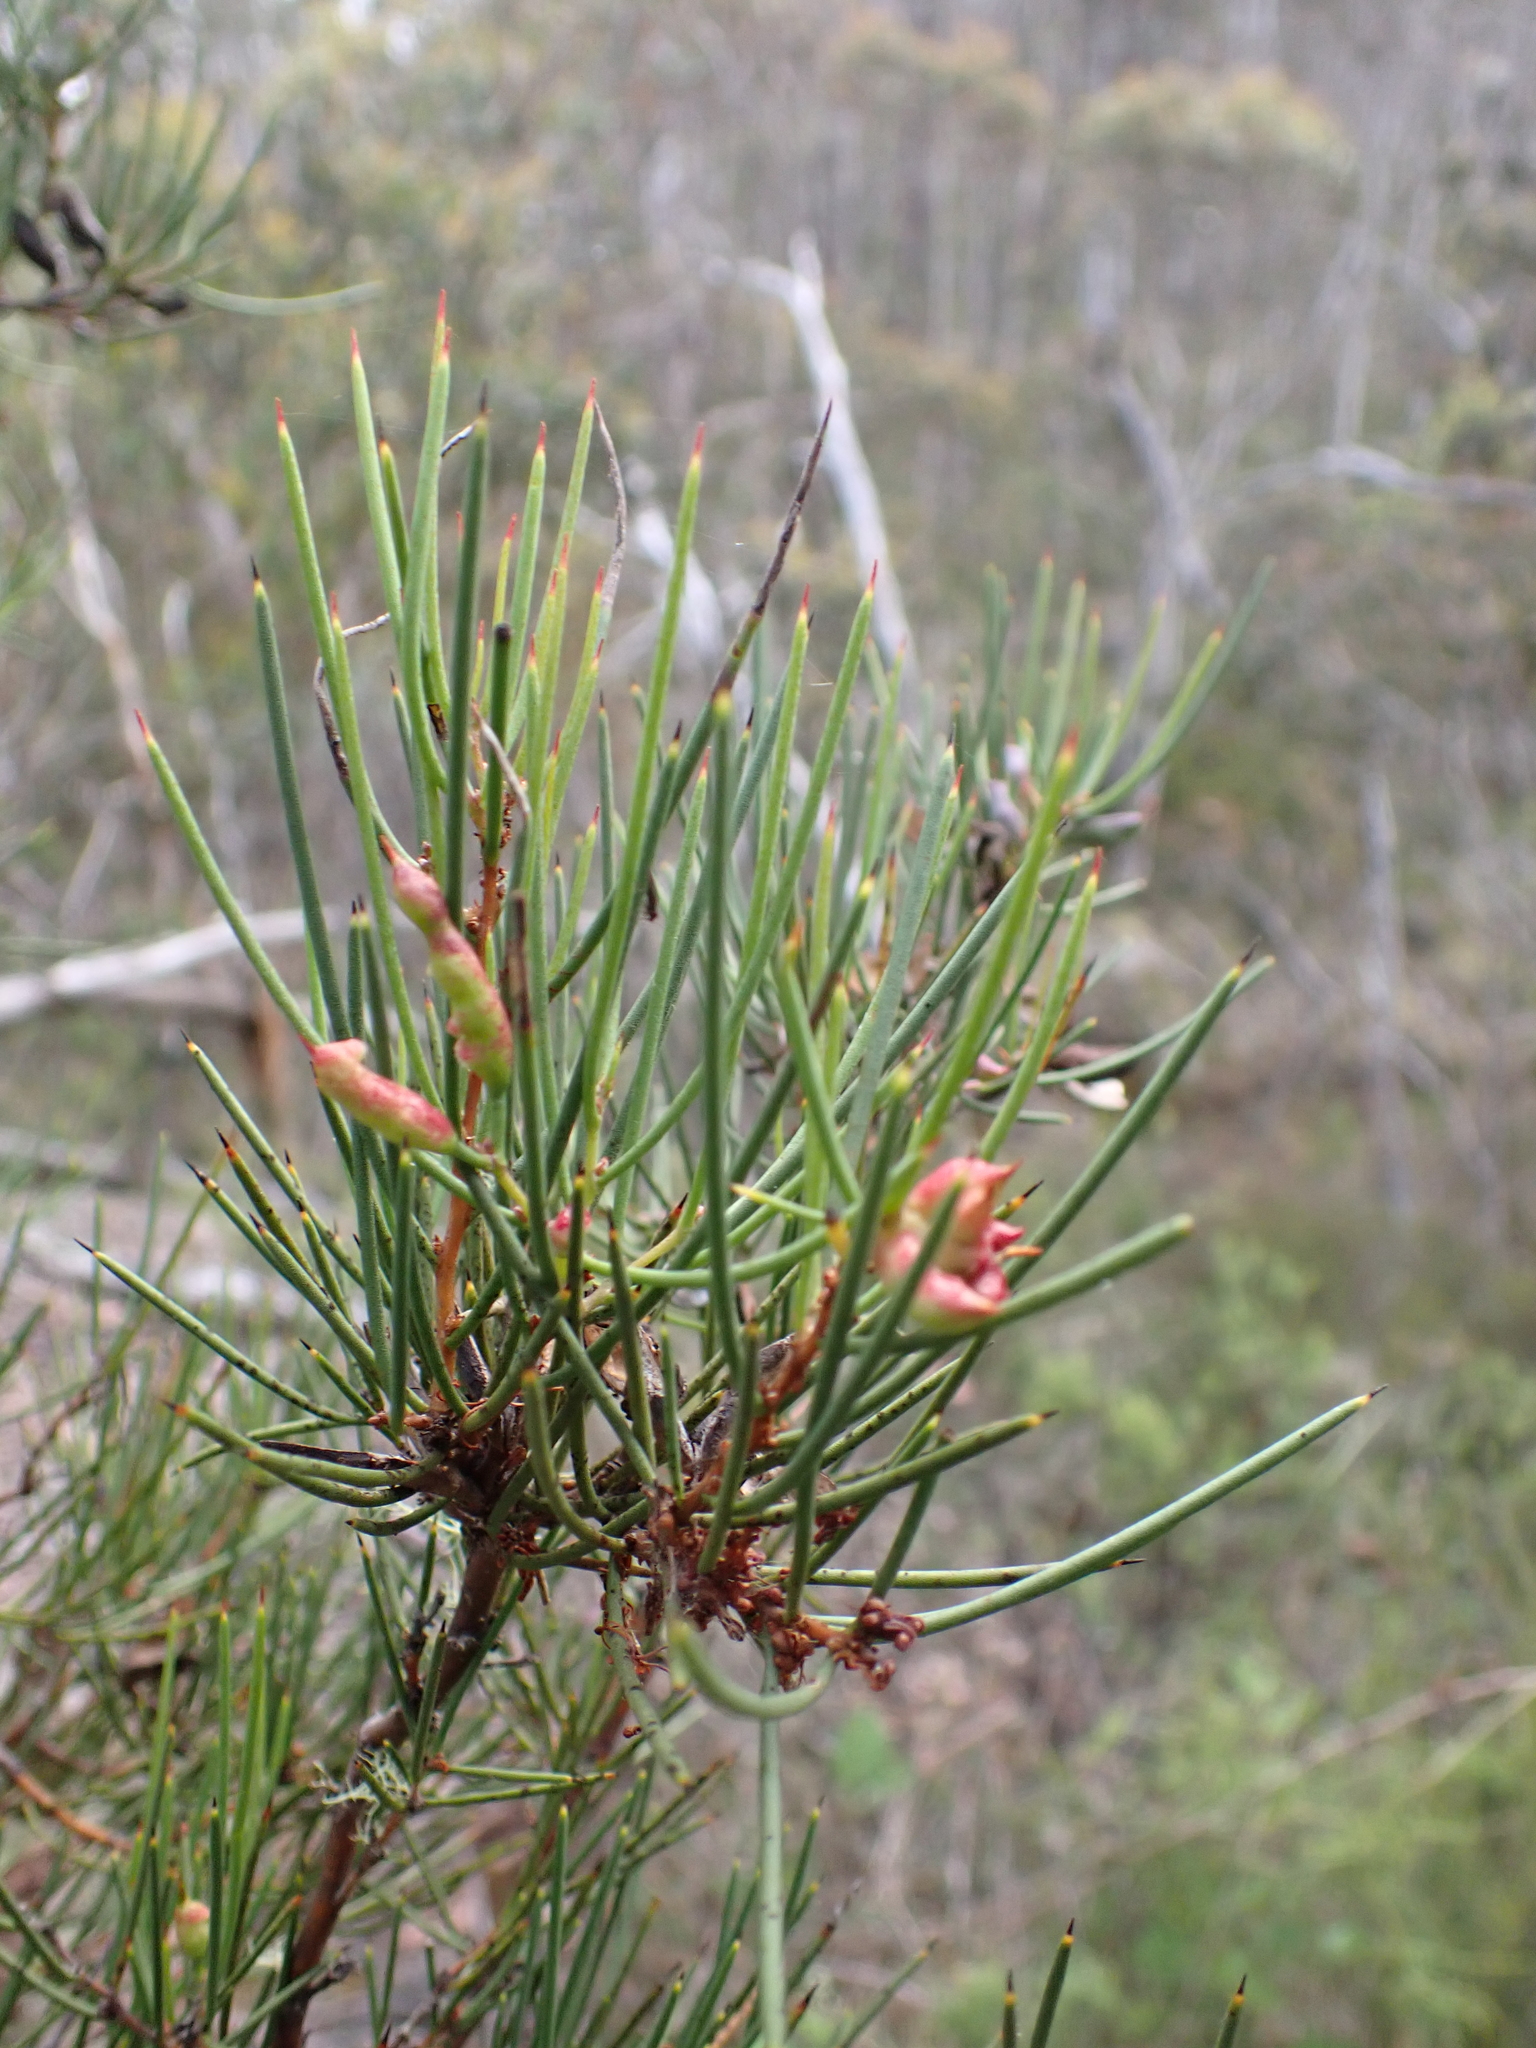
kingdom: Plantae
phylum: Tracheophyta
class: Magnoliopsida
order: Proteales
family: Proteaceae
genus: Hakea
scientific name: Hakea microcarpa
